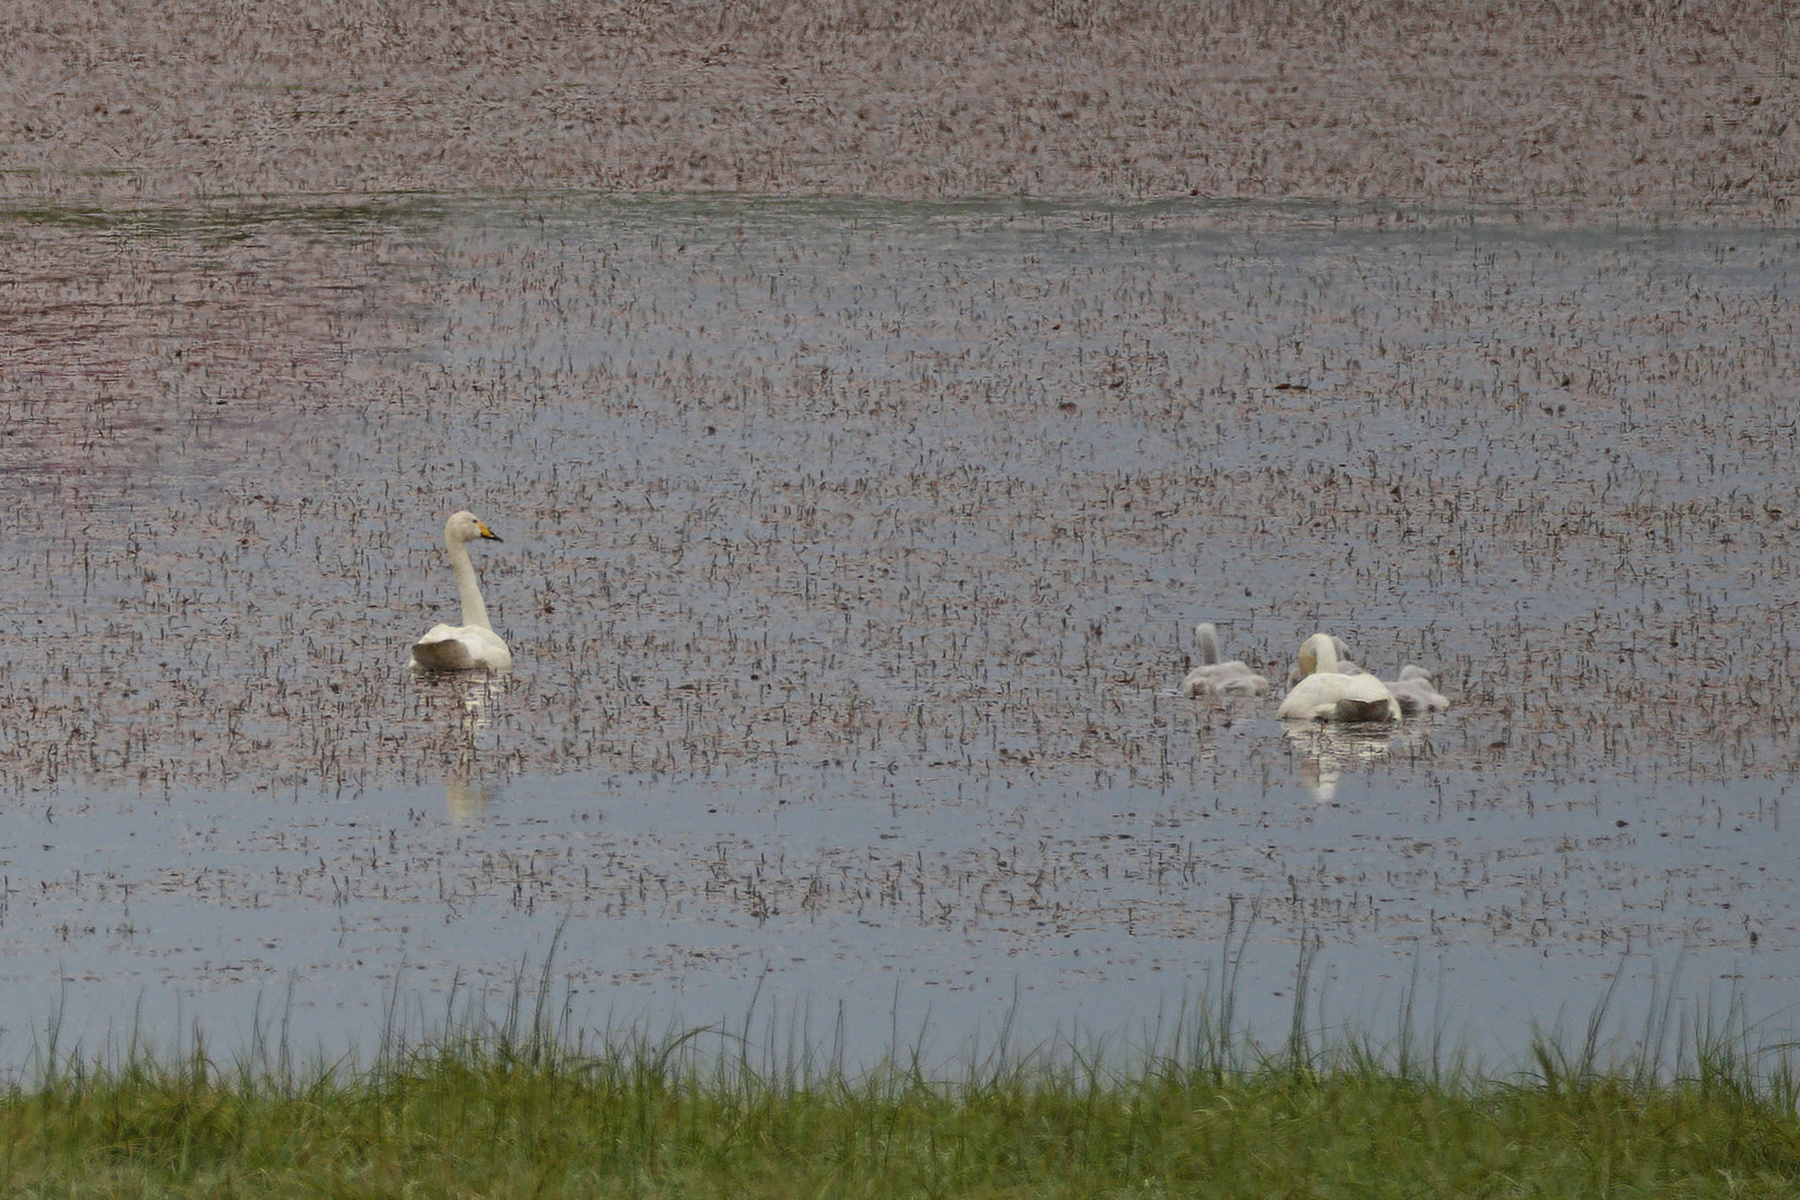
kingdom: Animalia
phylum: Chordata
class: Aves
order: Anseriformes
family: Anatidae
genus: Cygnus
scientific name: Cygnus cygnus
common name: Whooper swan
